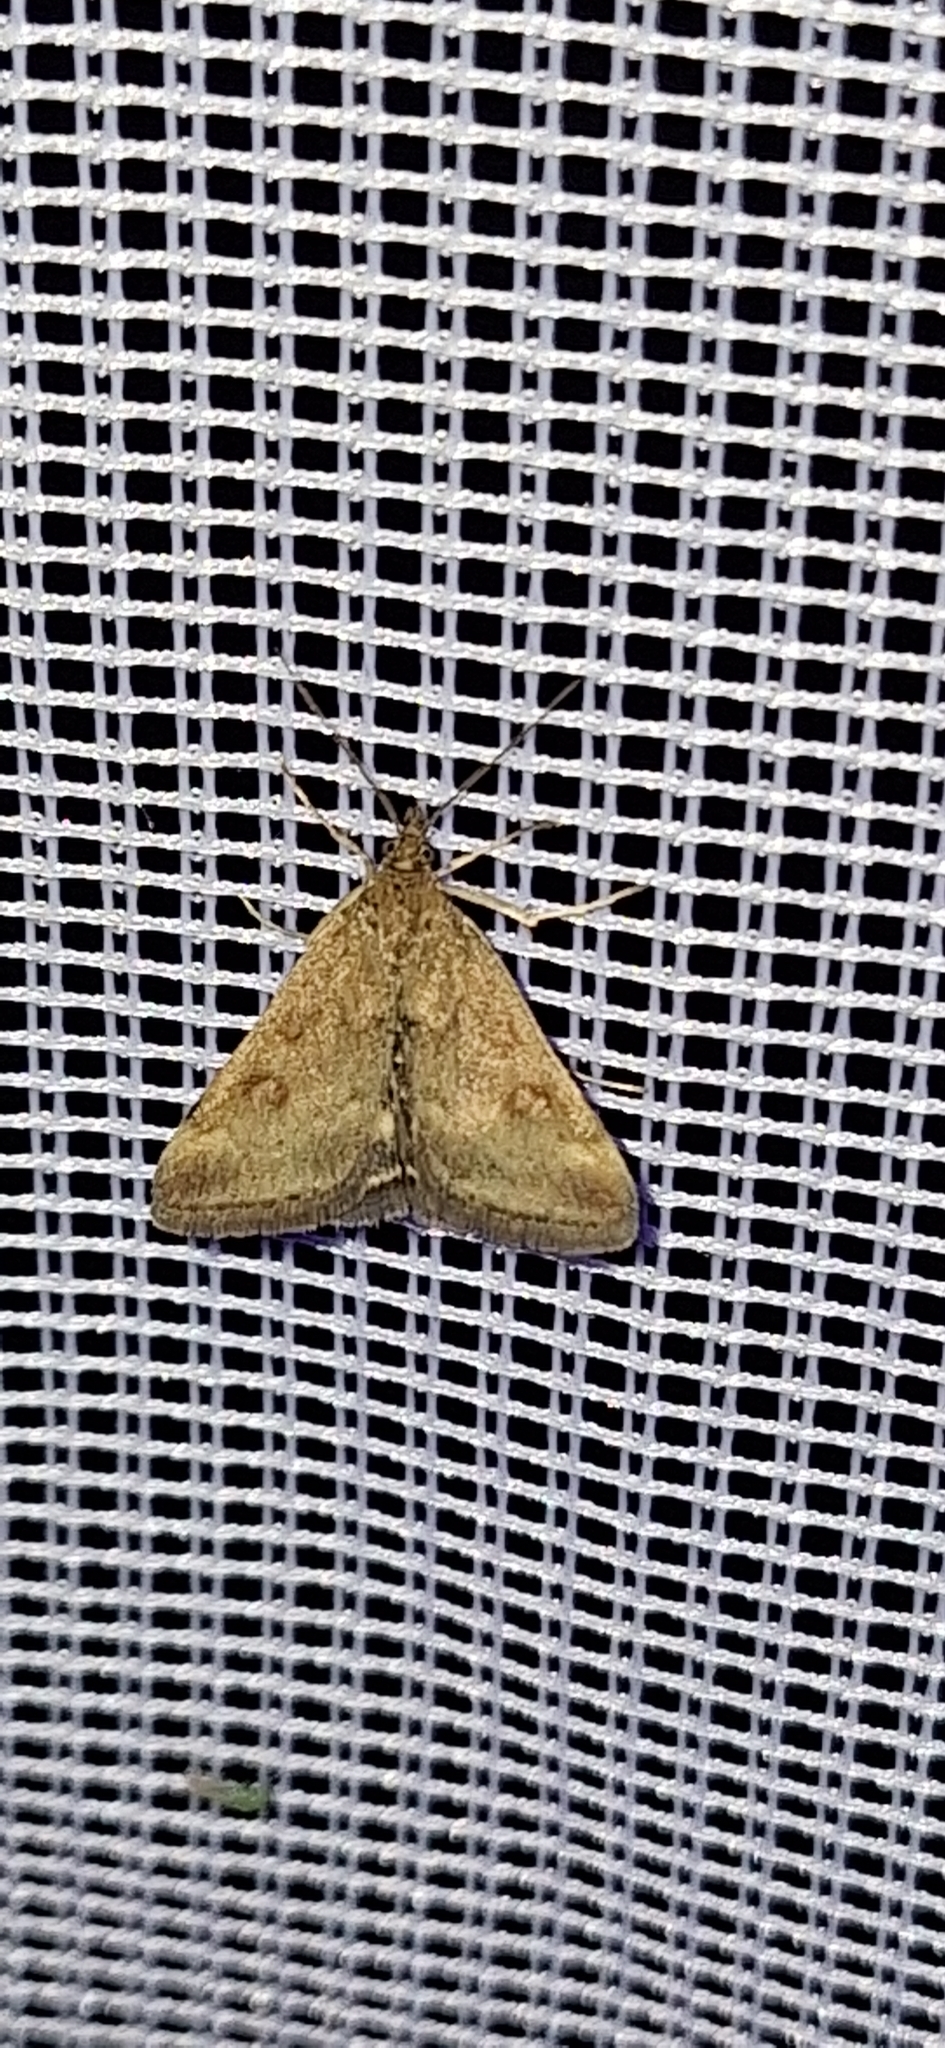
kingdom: Animalia
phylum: Arthropoda
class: Insecta
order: Lepidoptera
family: Crambidae
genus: Pyrausta
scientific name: Pyrausta despicata
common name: Straw-barred pearl
